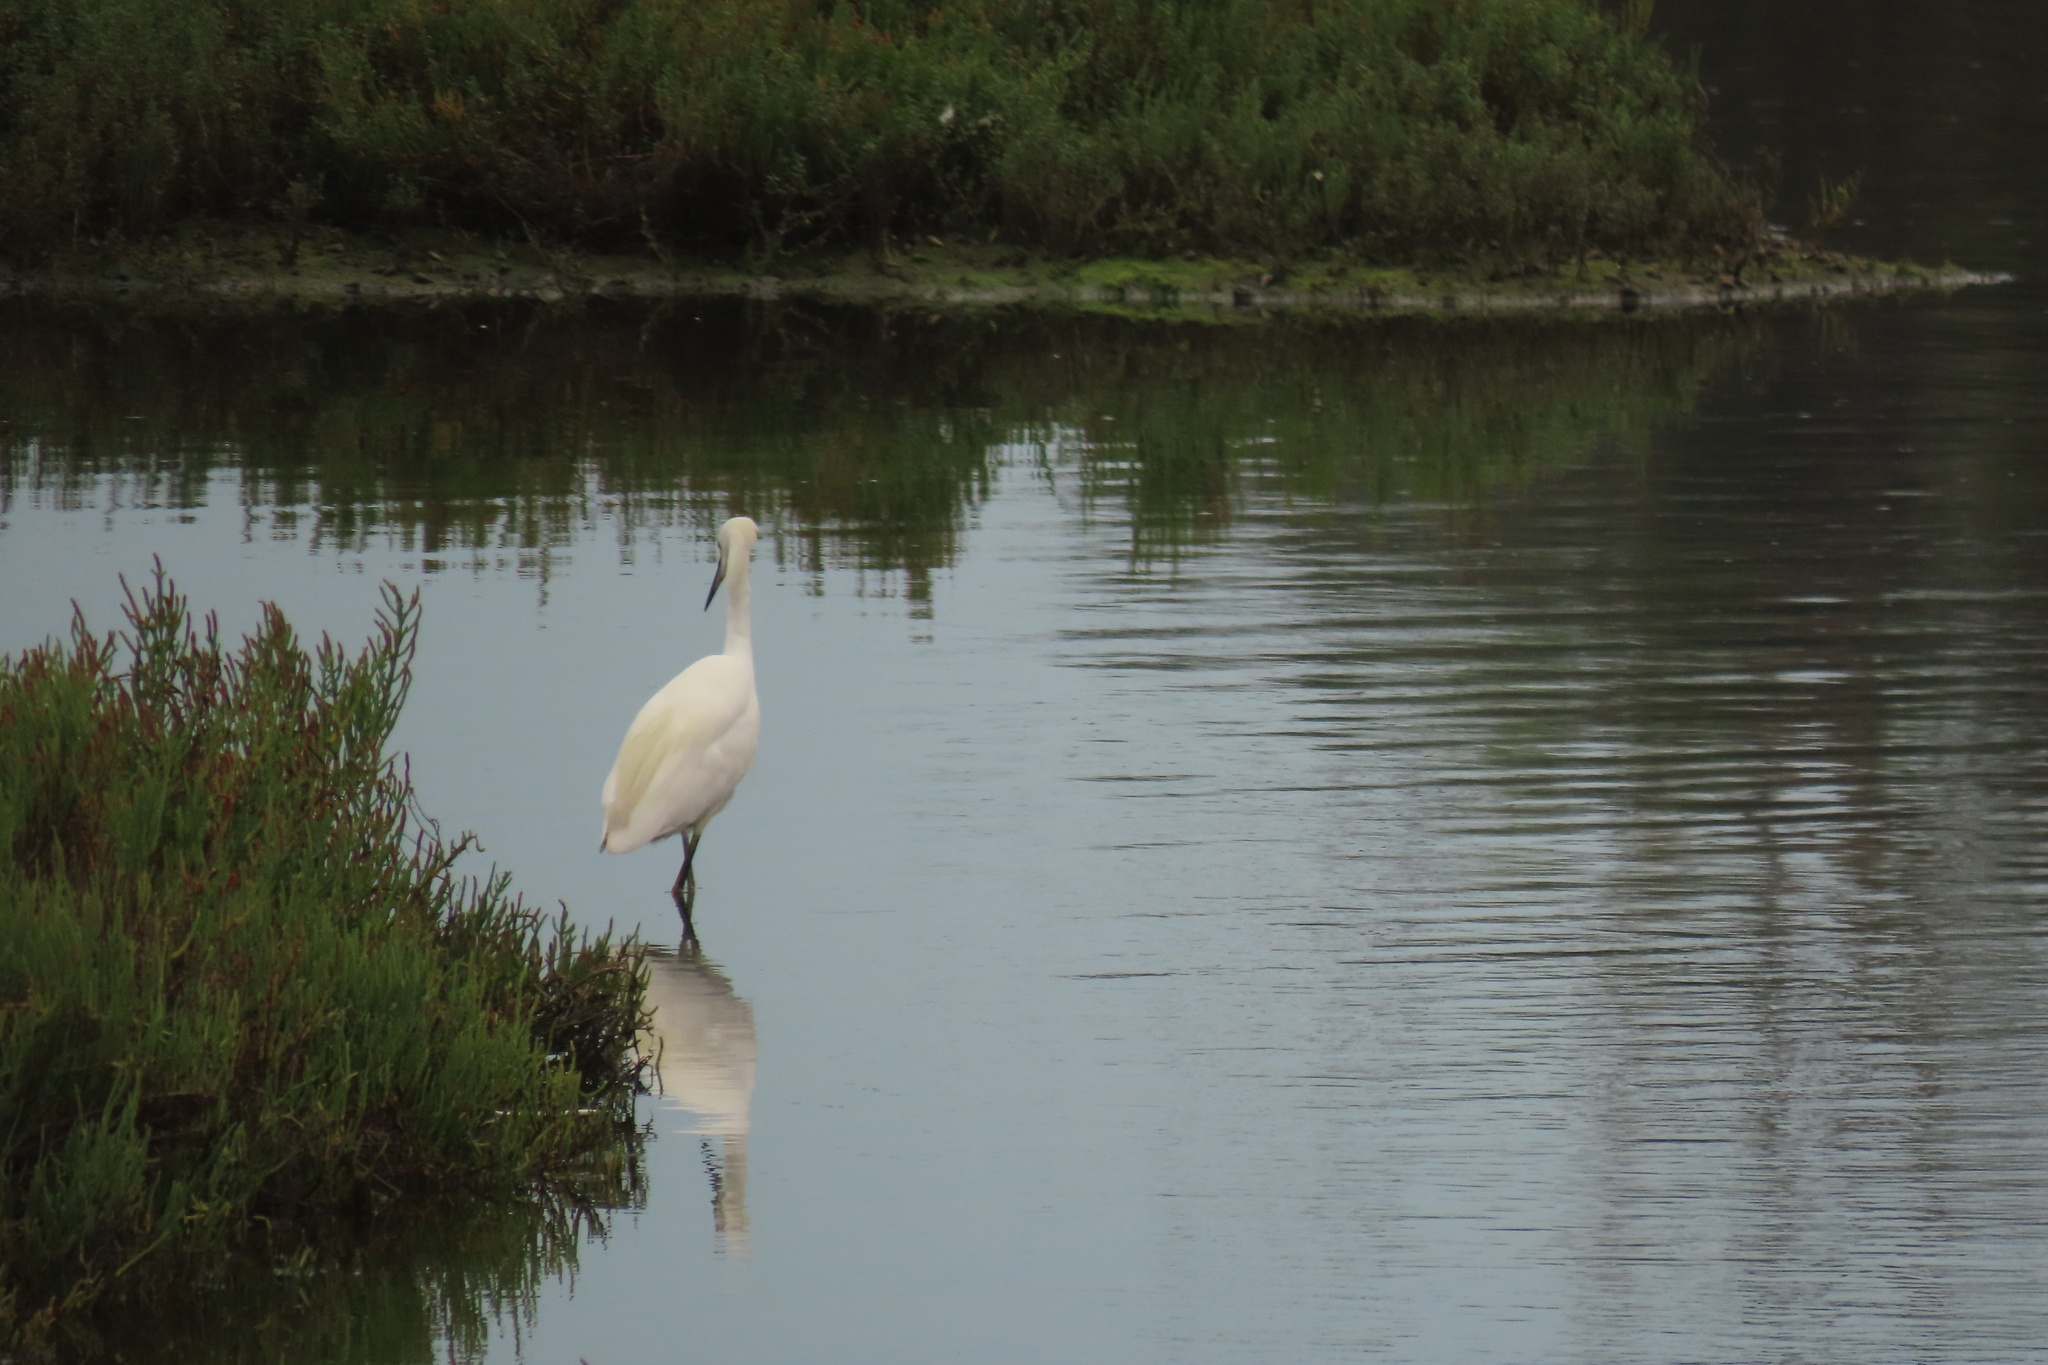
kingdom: Animalia
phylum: Chordata
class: Aves
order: Pelecaniformes
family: Ardeidae
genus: Ardea
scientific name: Ardea alba
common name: Great egret
